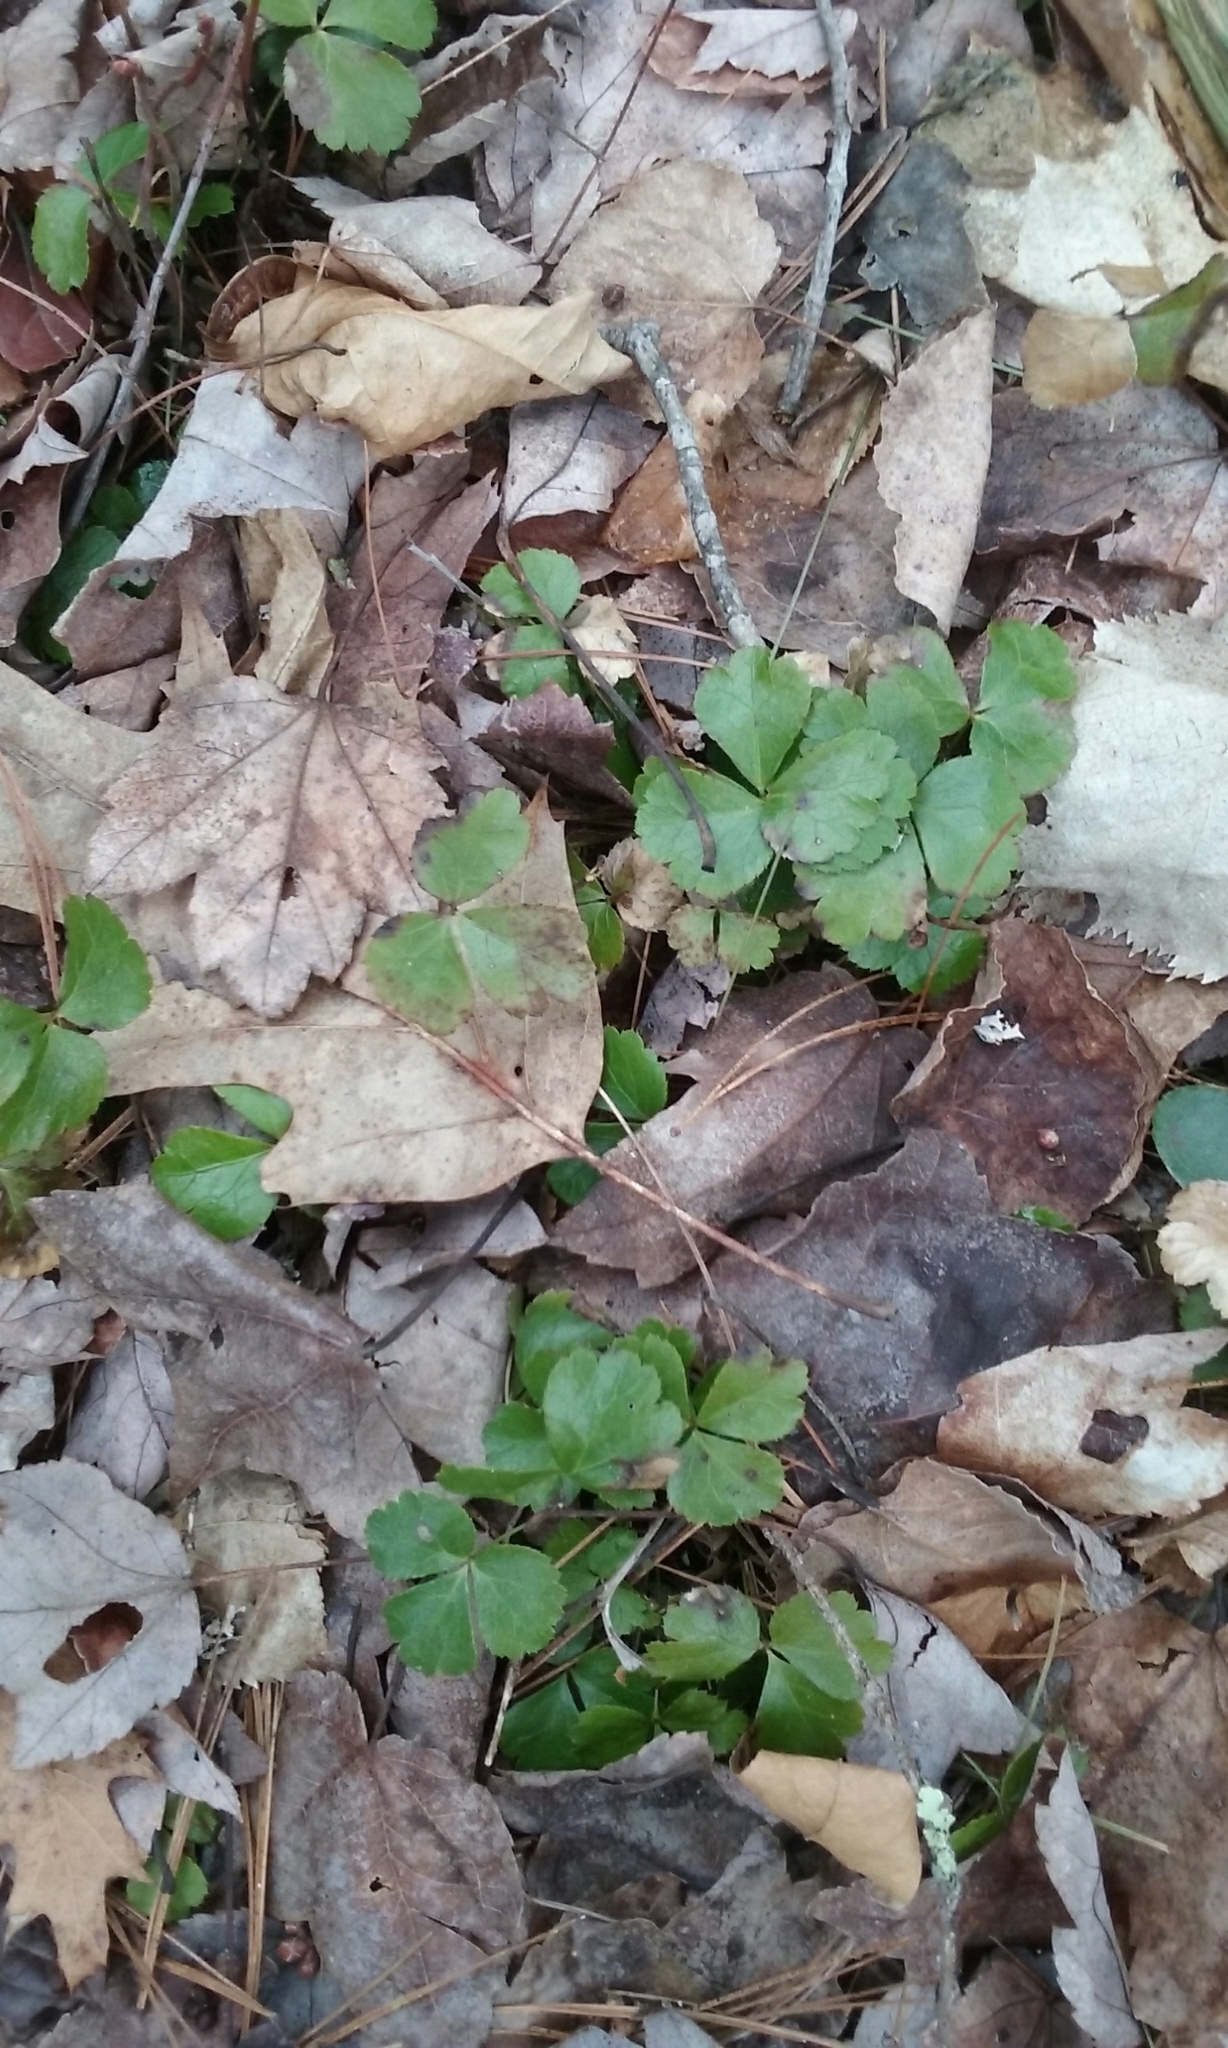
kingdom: Plantae
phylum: Tracheophyta
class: Magnoliopsida
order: Ranunculales
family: Ranunculaceae
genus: Coptis
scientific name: Coptis trifolia
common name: Canker-root
